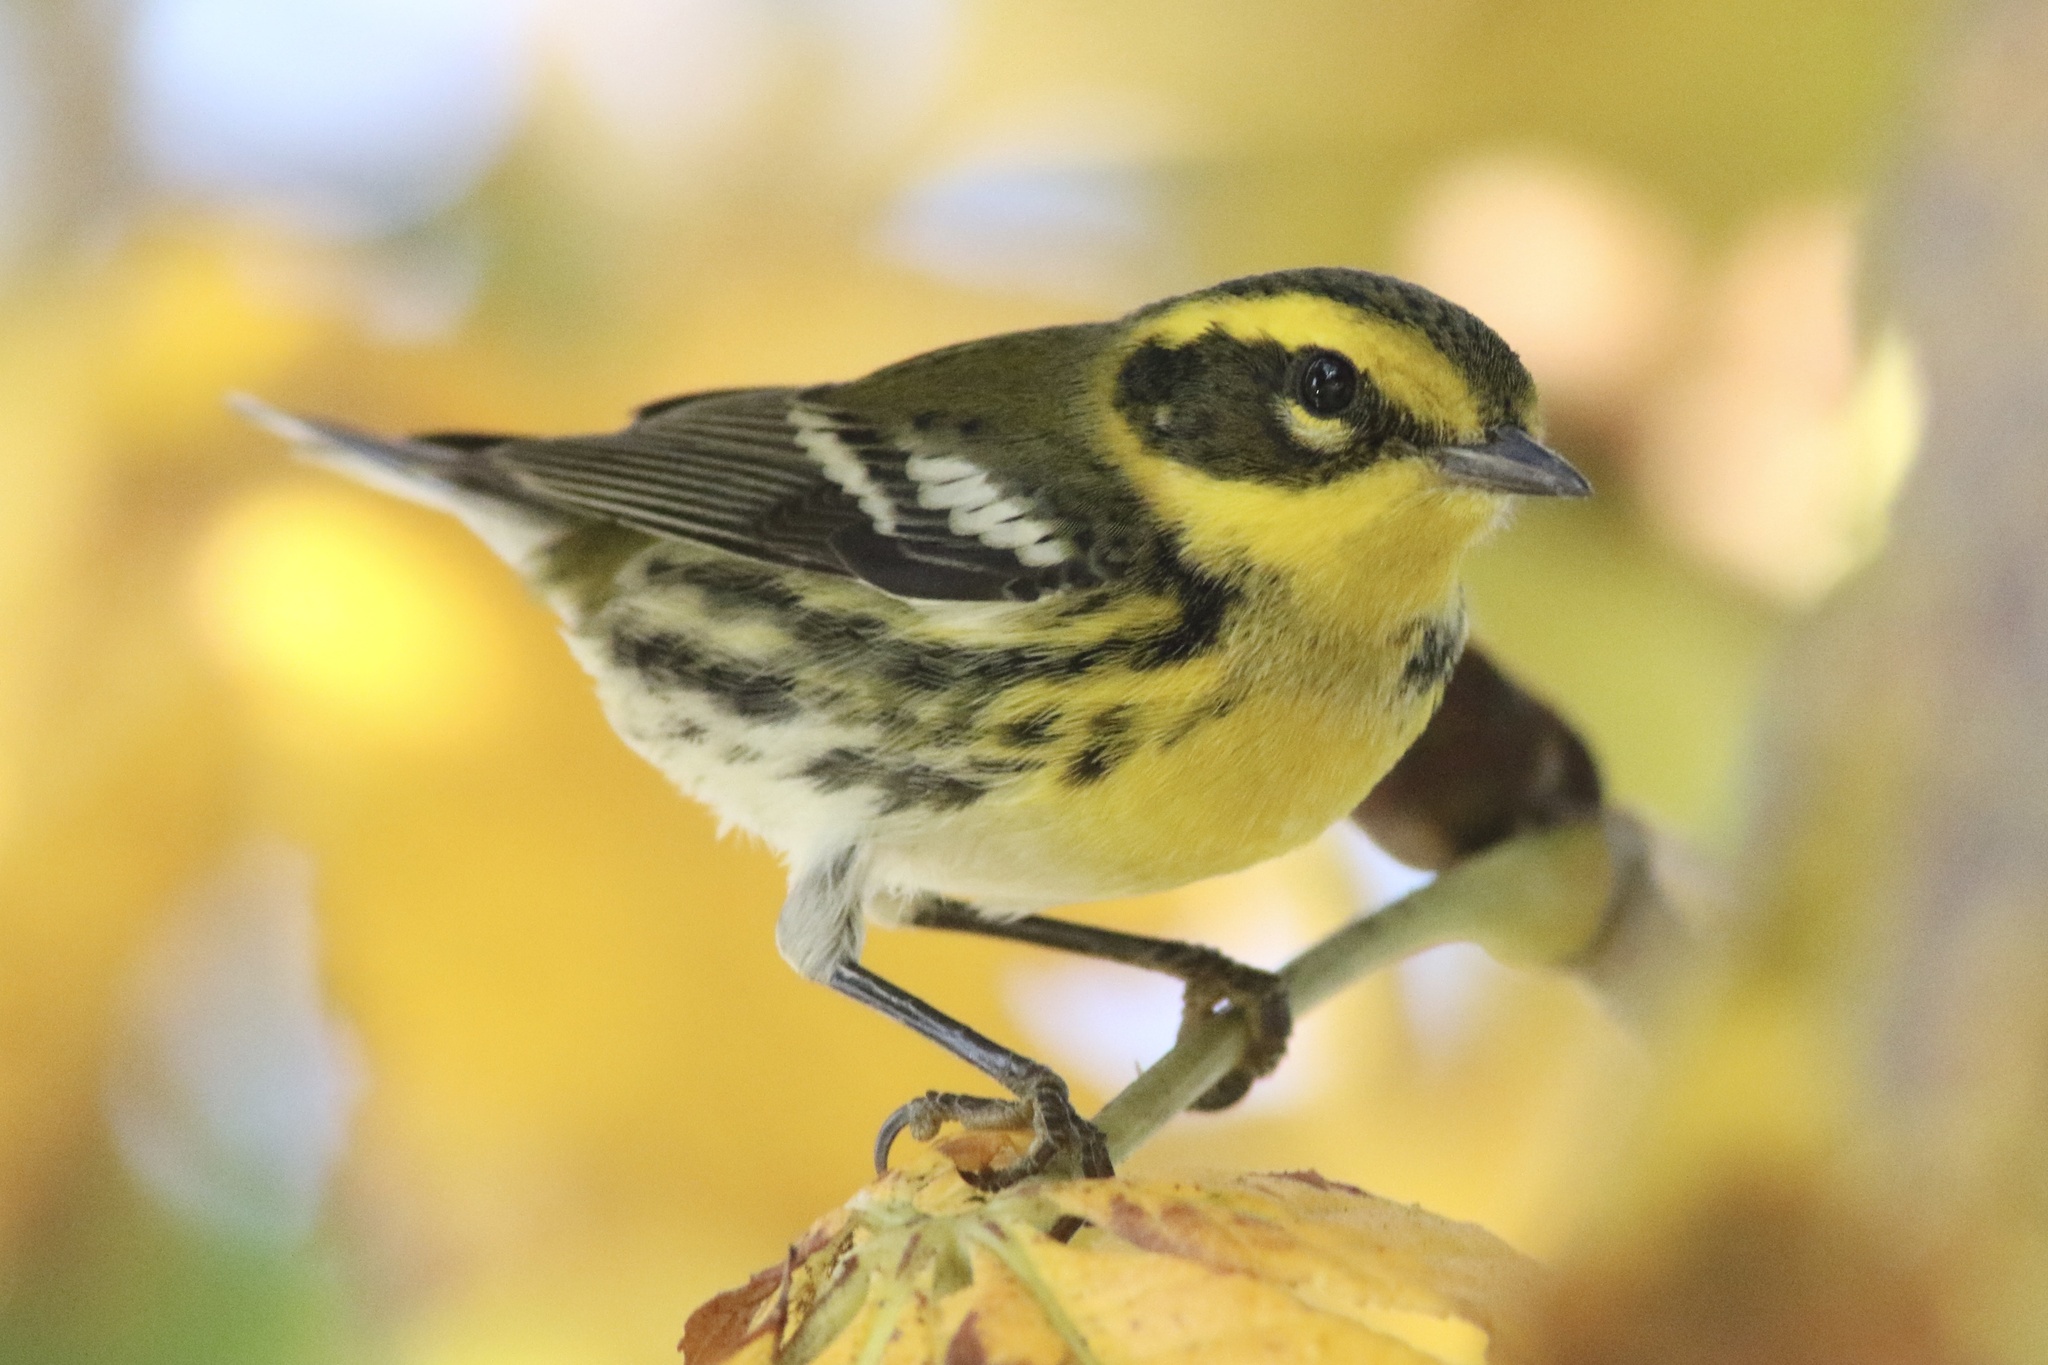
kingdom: Animalia
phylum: Chordata
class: Aves
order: Passeriformes
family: Parulidae
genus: Setophaga
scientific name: Setophaga townsendi
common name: Townsend's warbler
